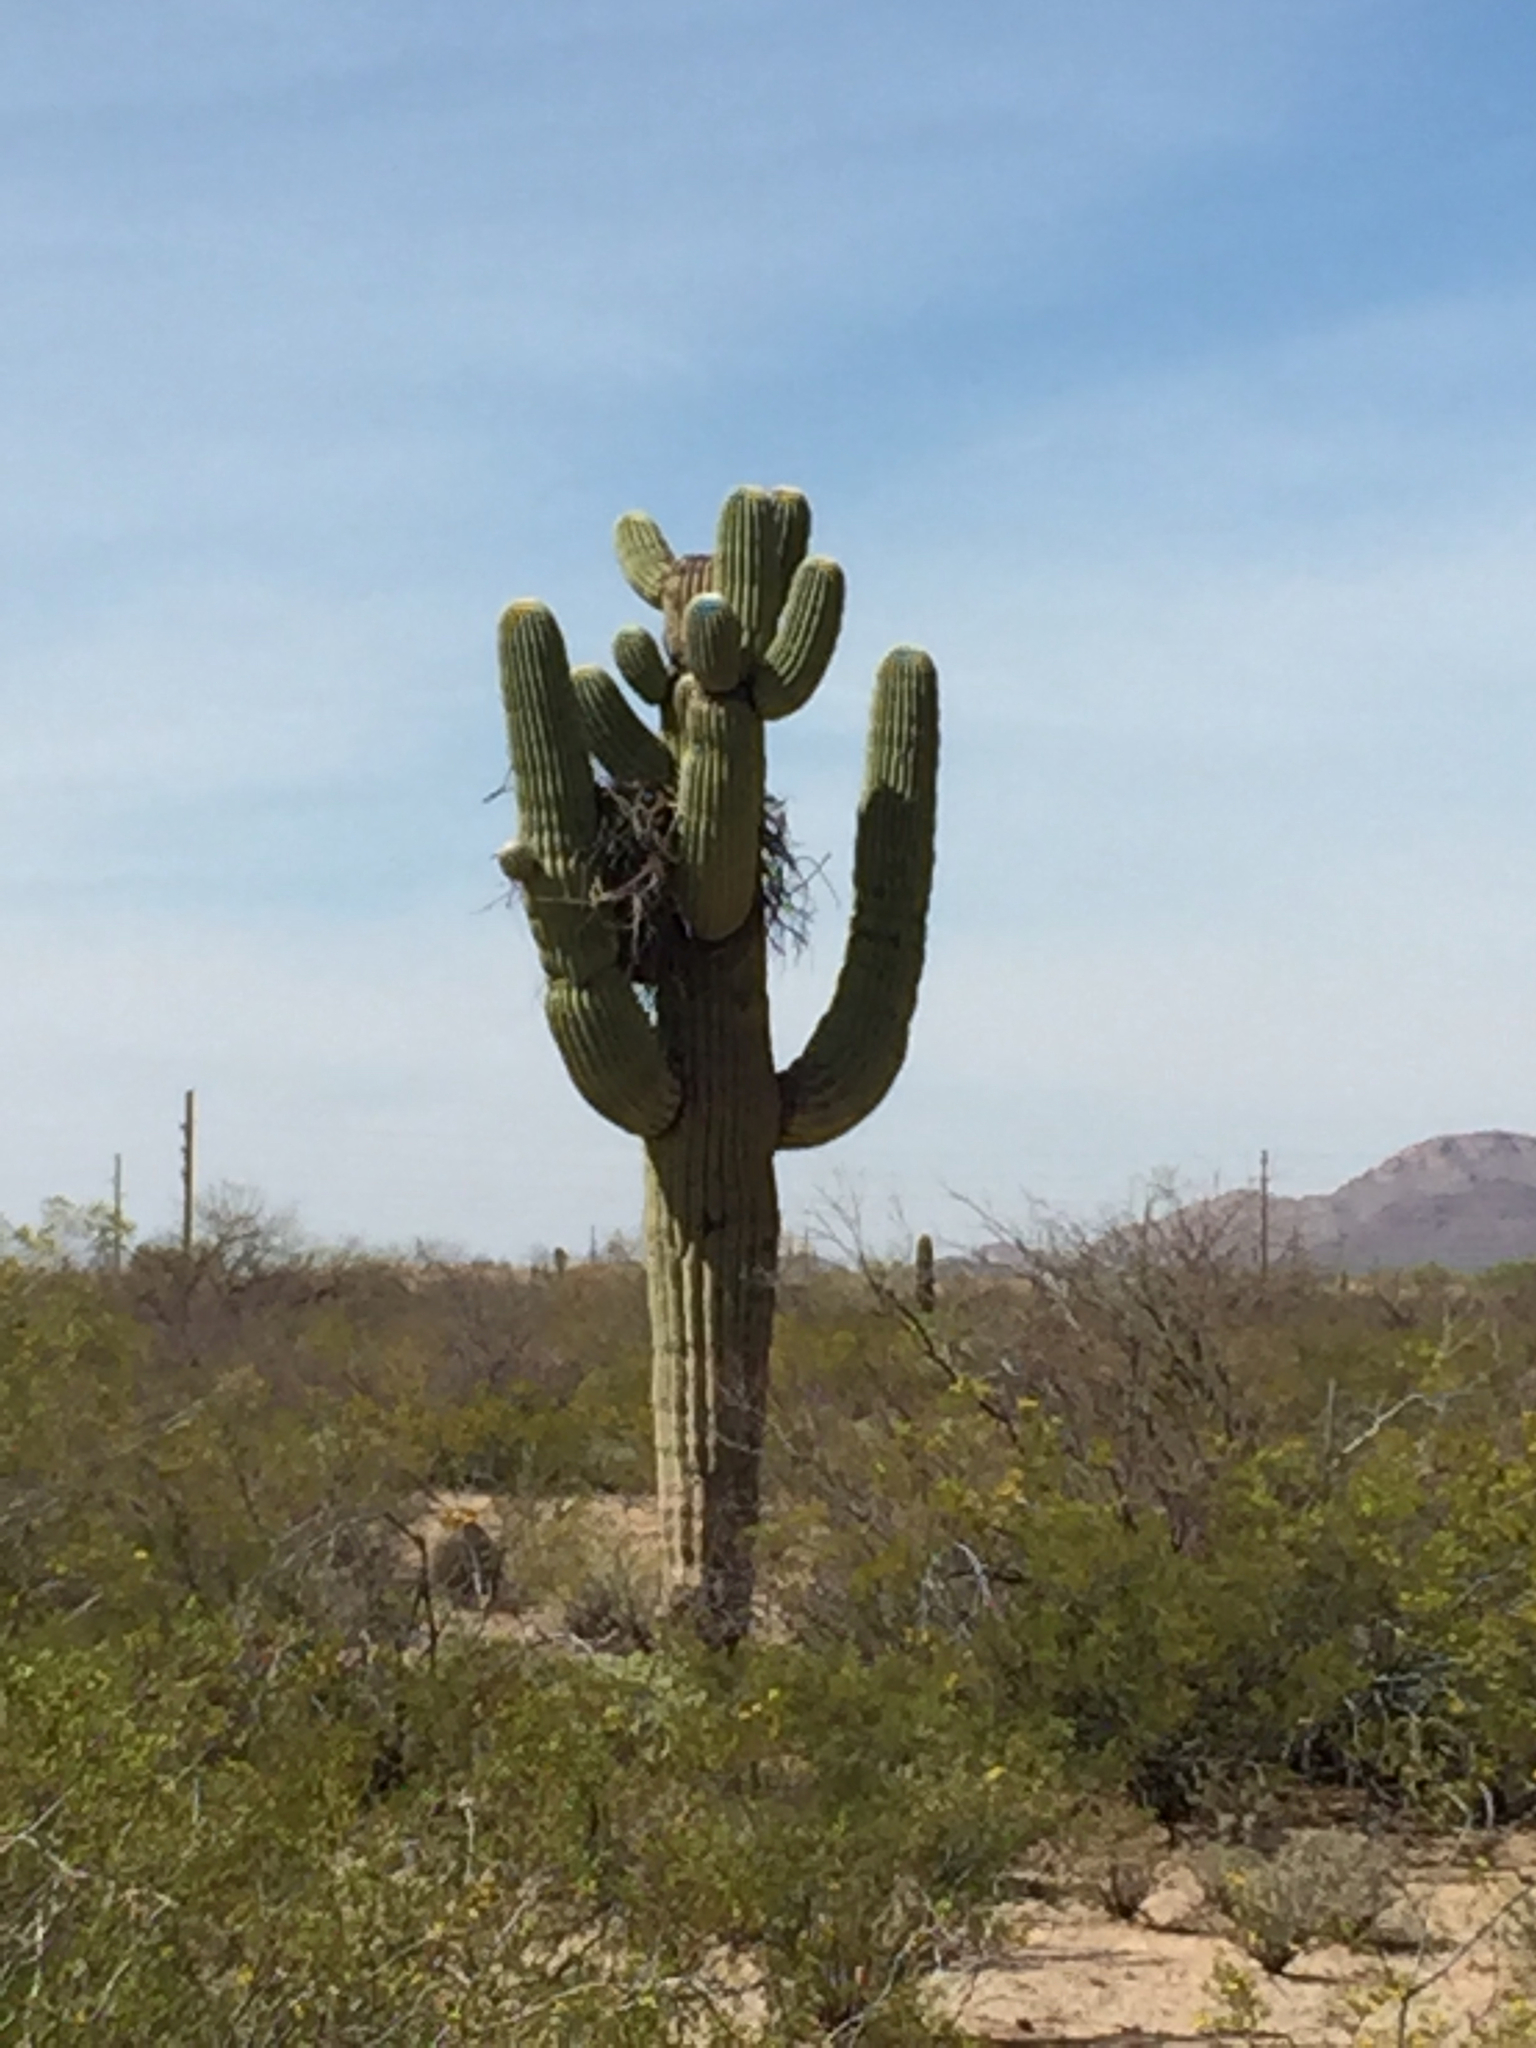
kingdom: Plantae
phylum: Tracheophyta
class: Magnoliopsida
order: Caryophyllales
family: Cactaceae
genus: Carnegiea
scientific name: Carnegiea gigantea
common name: Saguaro
